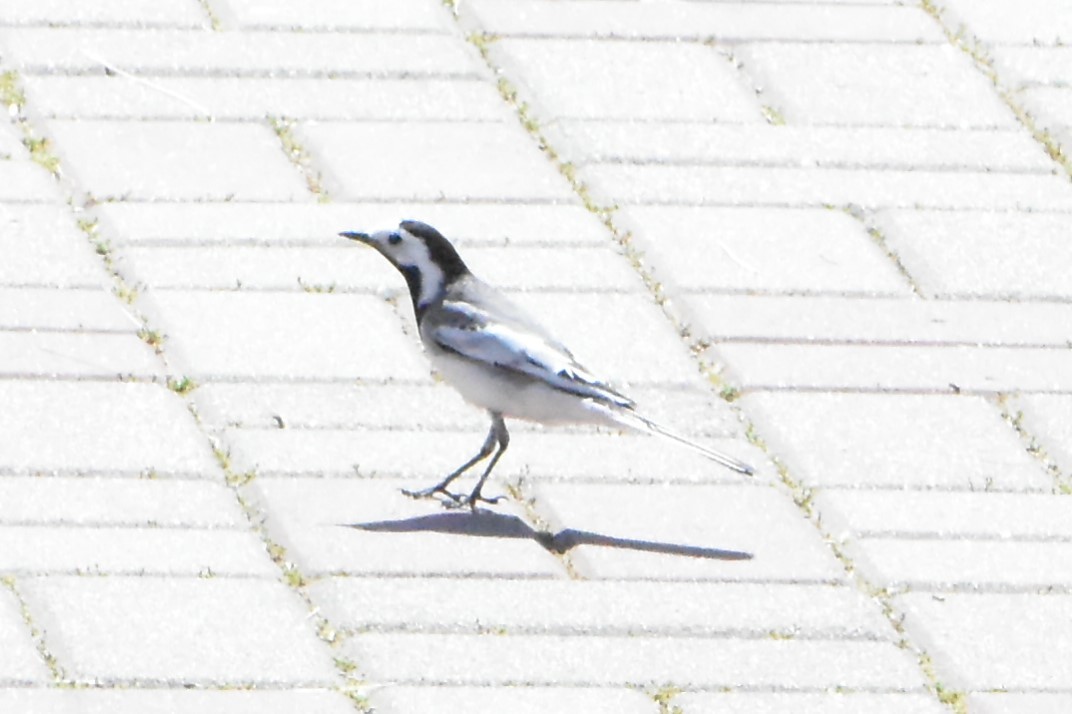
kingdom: Animalia
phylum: Chordata
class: Aves
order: Passeriformes
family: Motacillidae
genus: Motacilla
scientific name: Motacilla alba
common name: White wagtail
